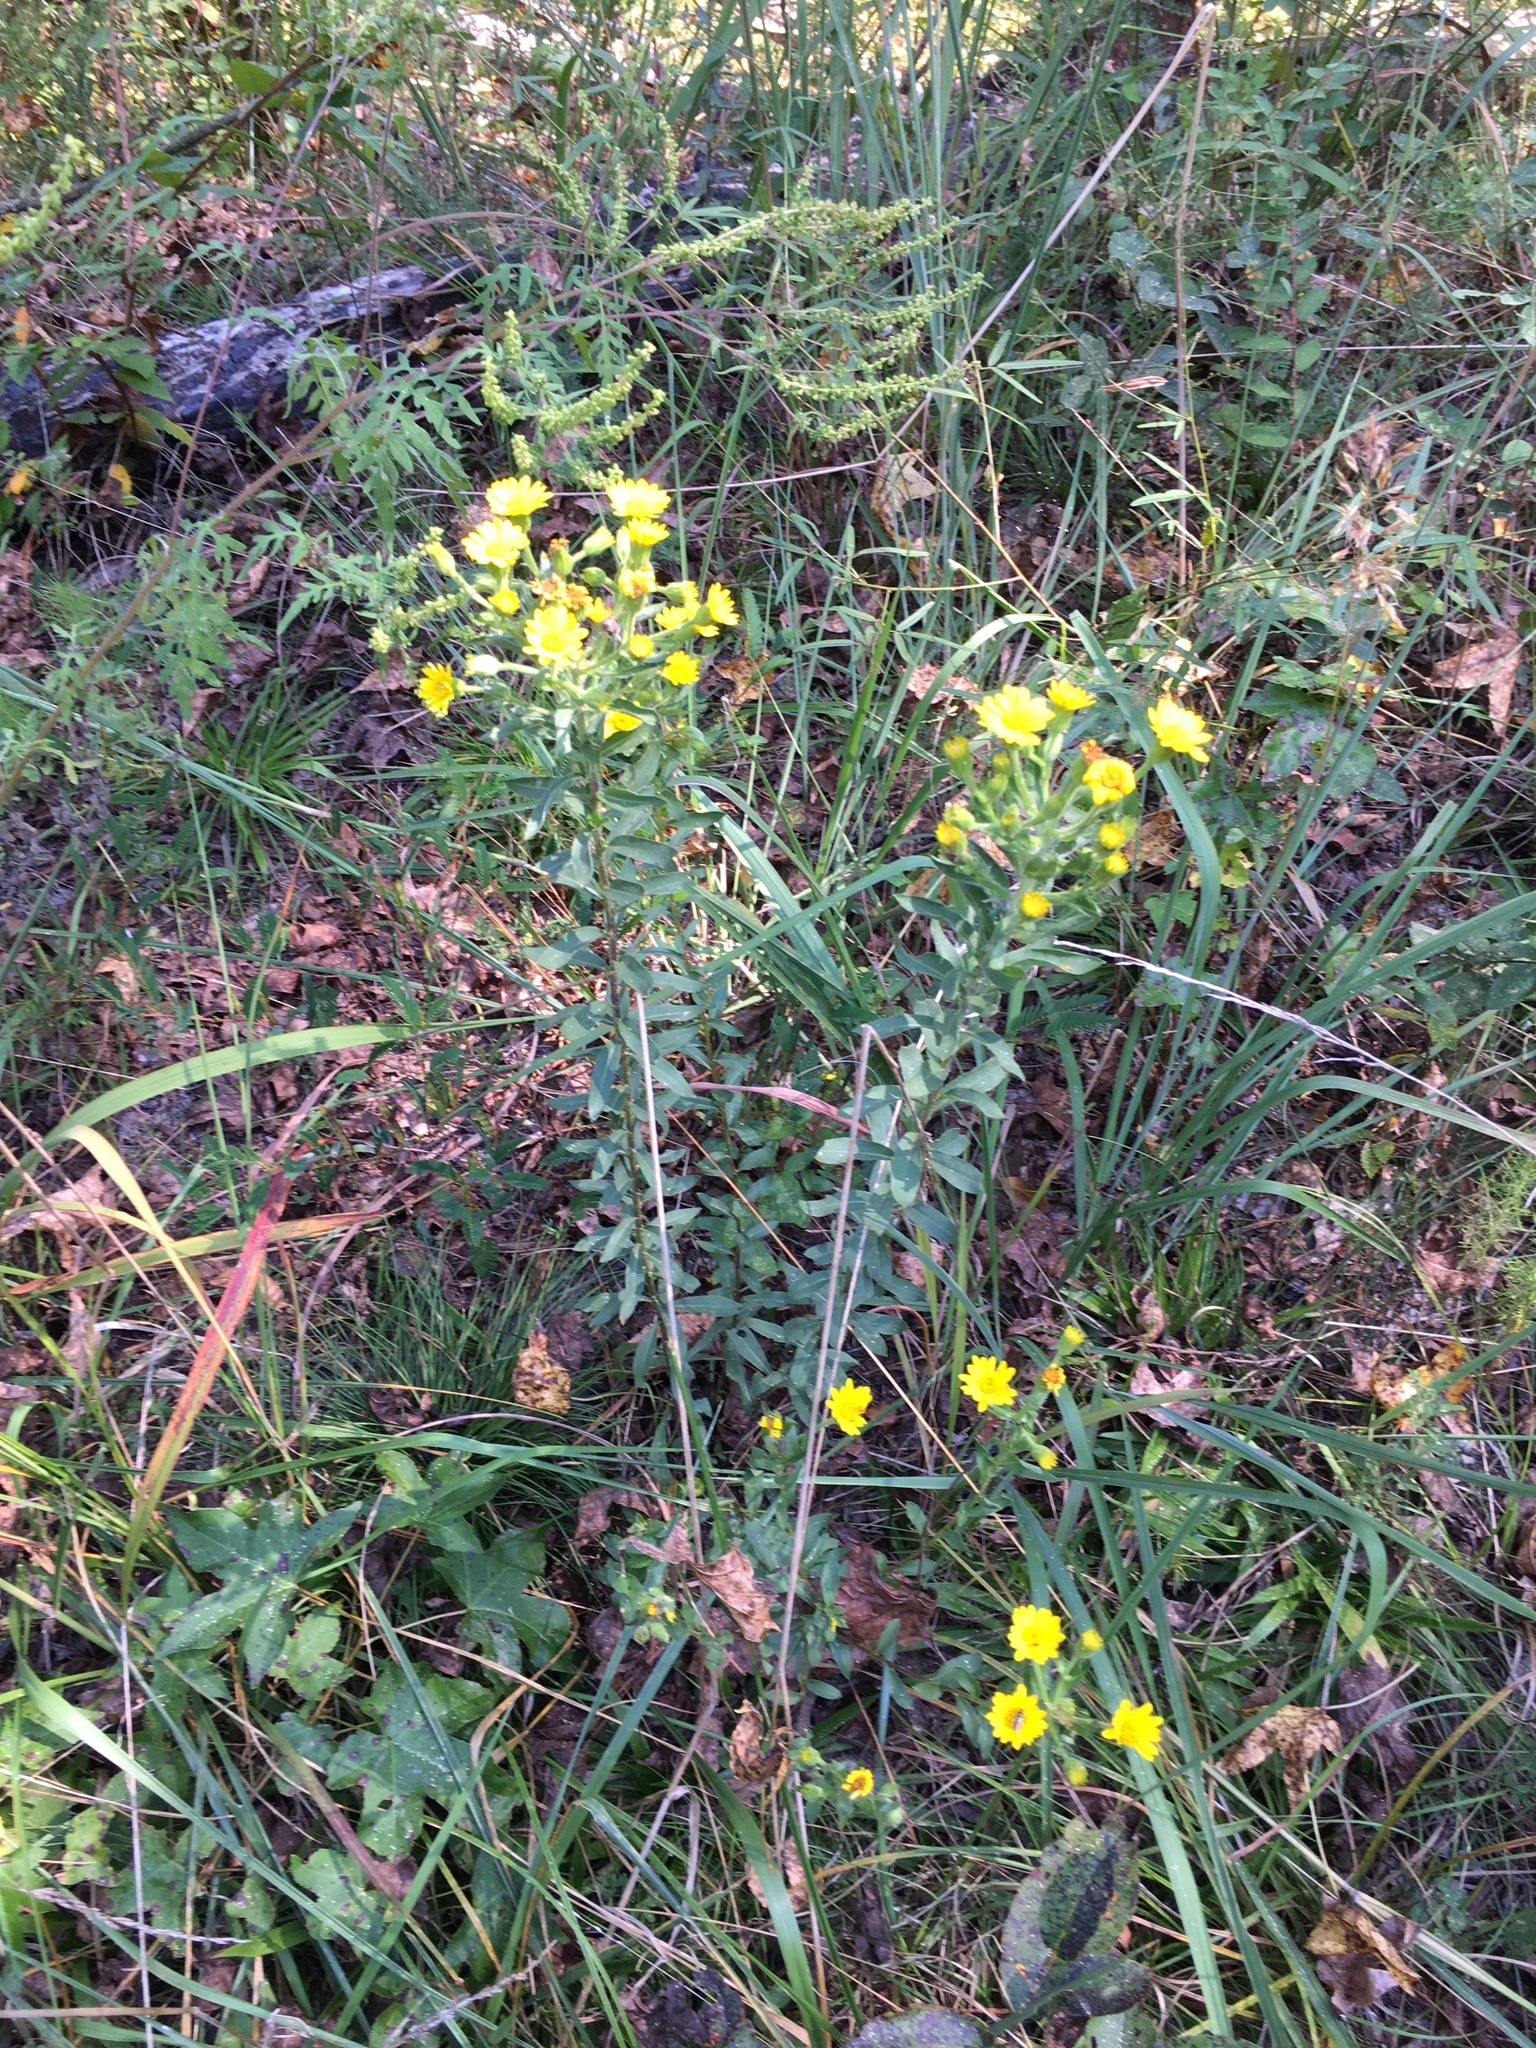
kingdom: Plantae
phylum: Tracheophyta
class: Magnoliopsida
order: Asterales
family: Asteraceae
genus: Chrysopsis
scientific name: Chrysopsis mariana
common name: Maryland golden-aster
